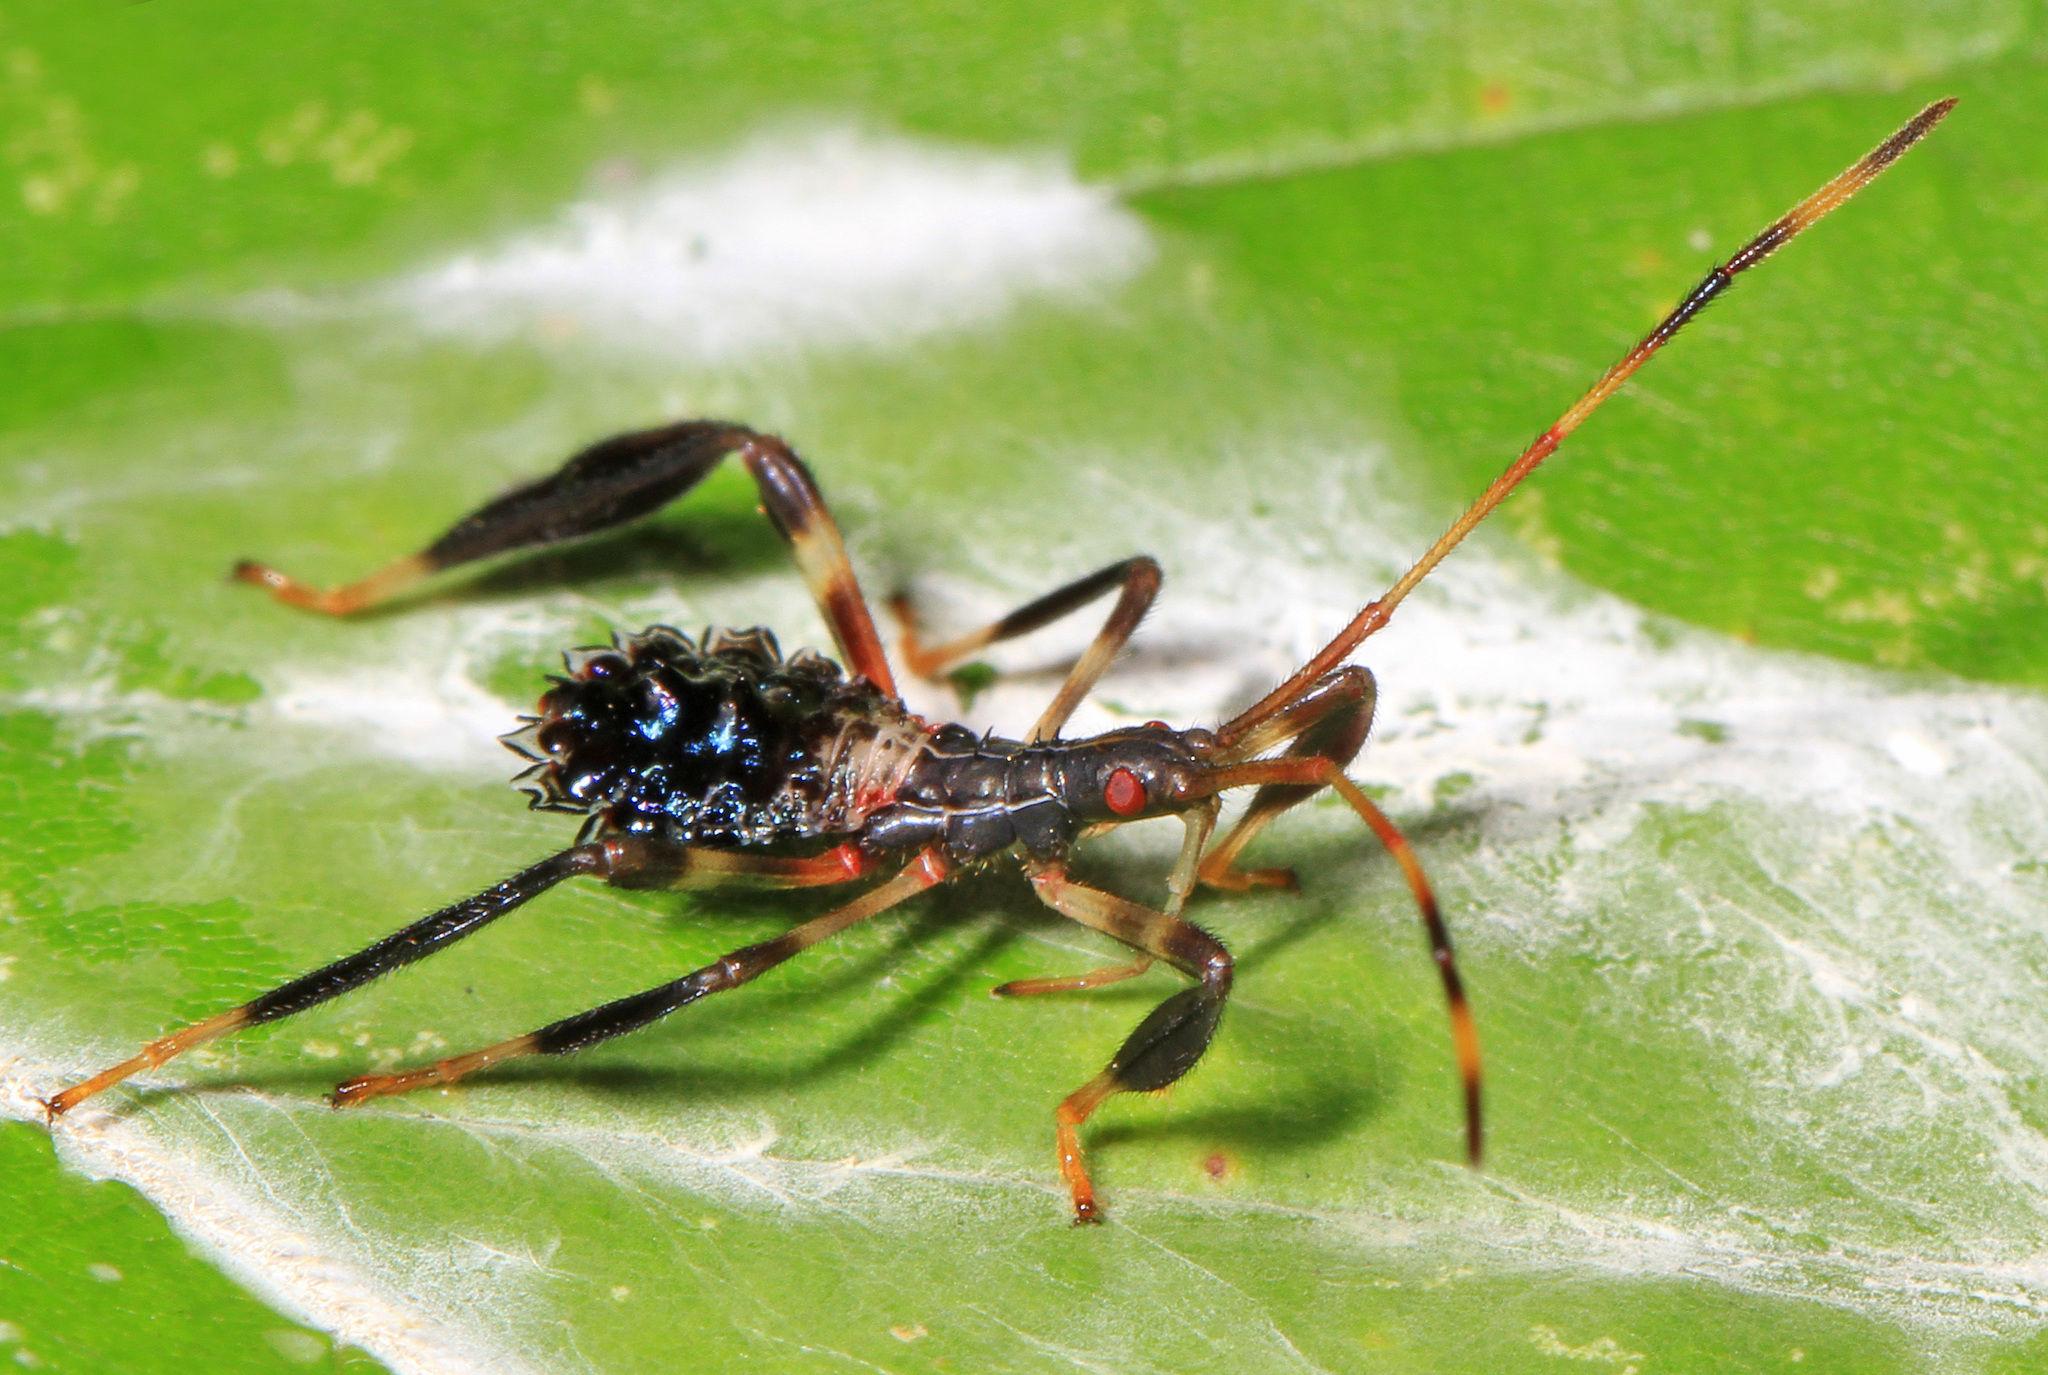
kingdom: Animalia
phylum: Arthropoda
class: Insecta
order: Hemiptera
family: Coreidae
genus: Acanthocephala
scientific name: Acanthocephala terminalis
